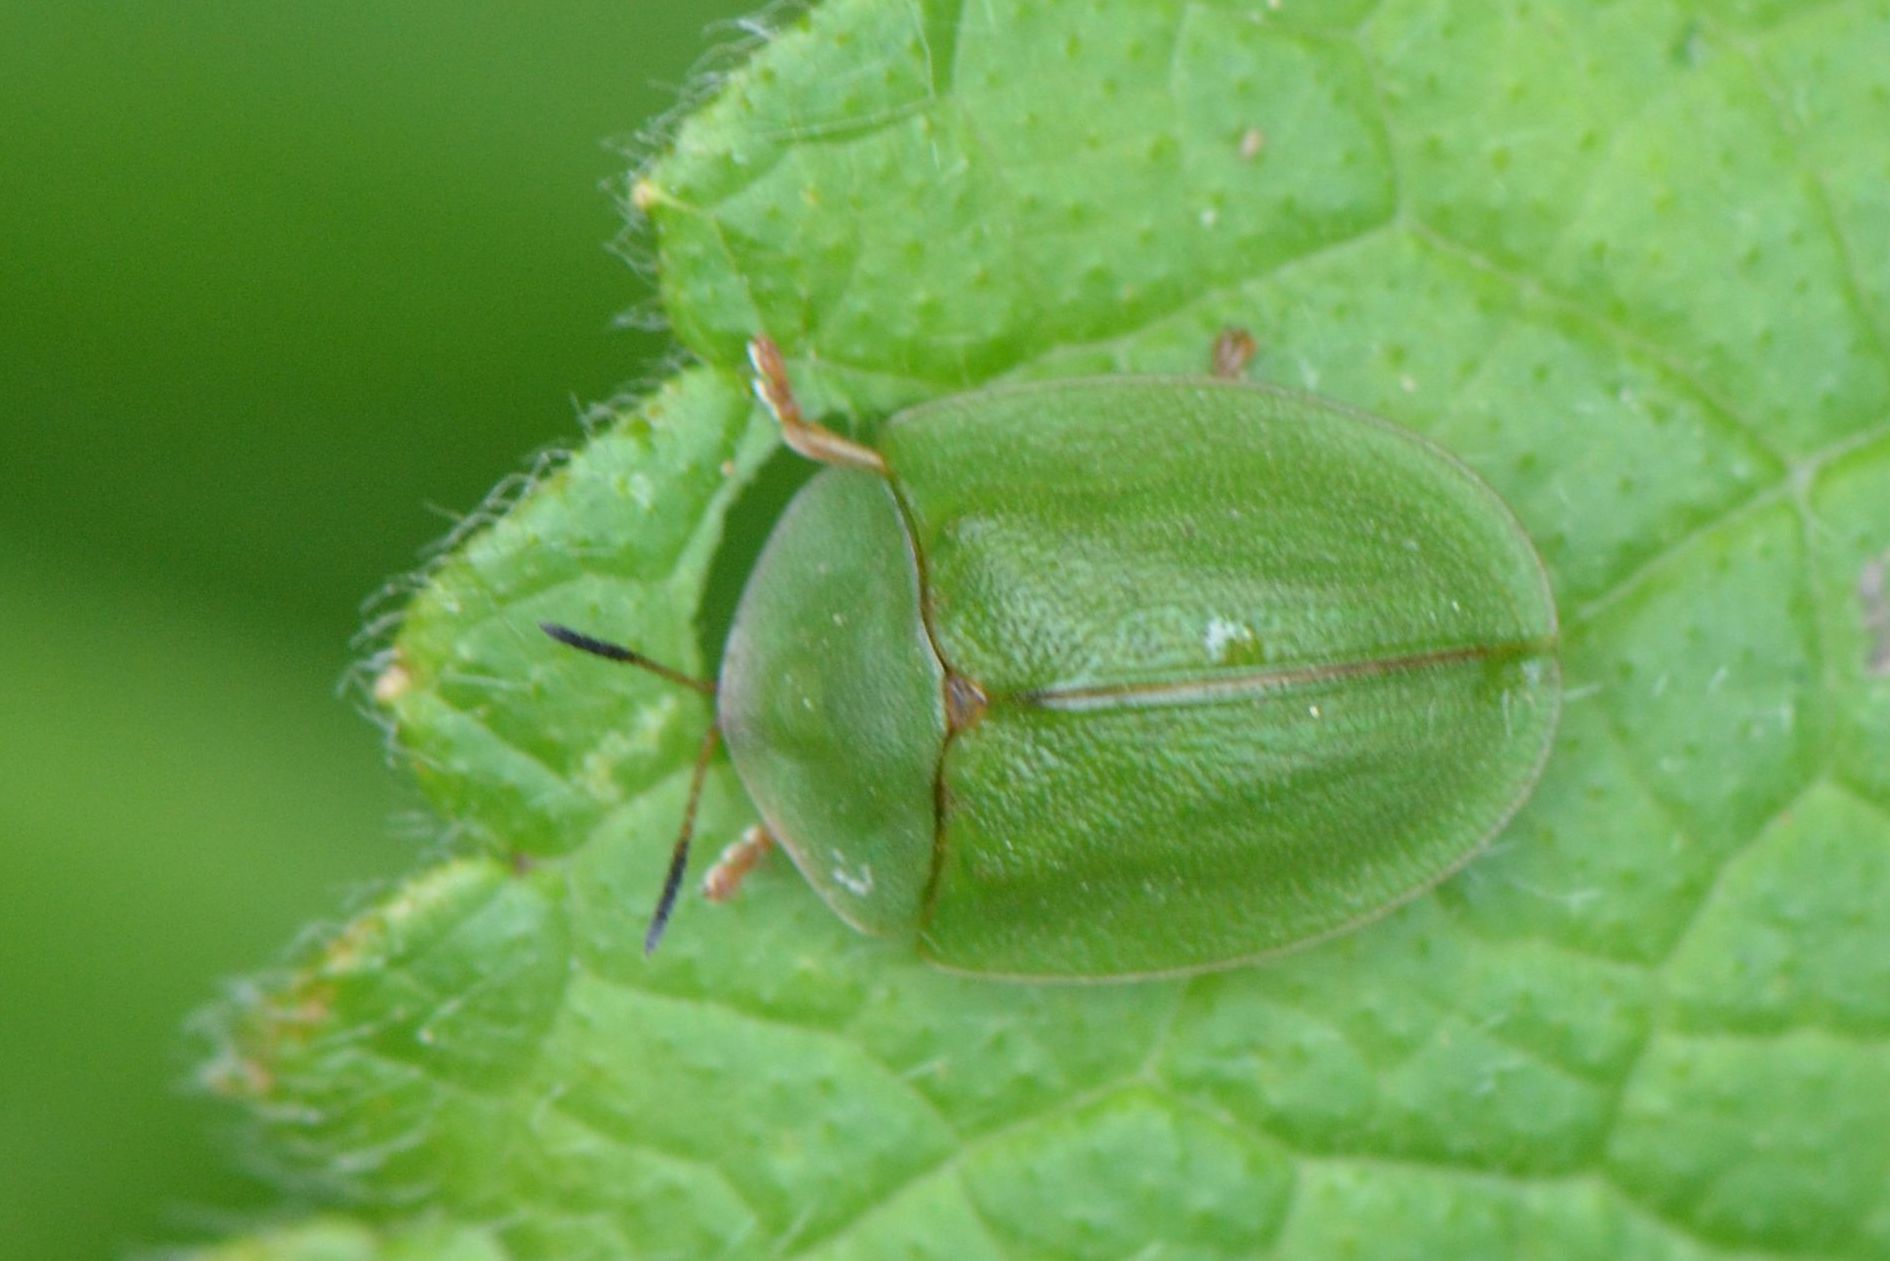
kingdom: Animalia
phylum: Arthropoda
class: Insecta
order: Coleoptera
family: Chrysomelidae
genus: Cassida
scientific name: Cassida viridis
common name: Green tortoise beetle
